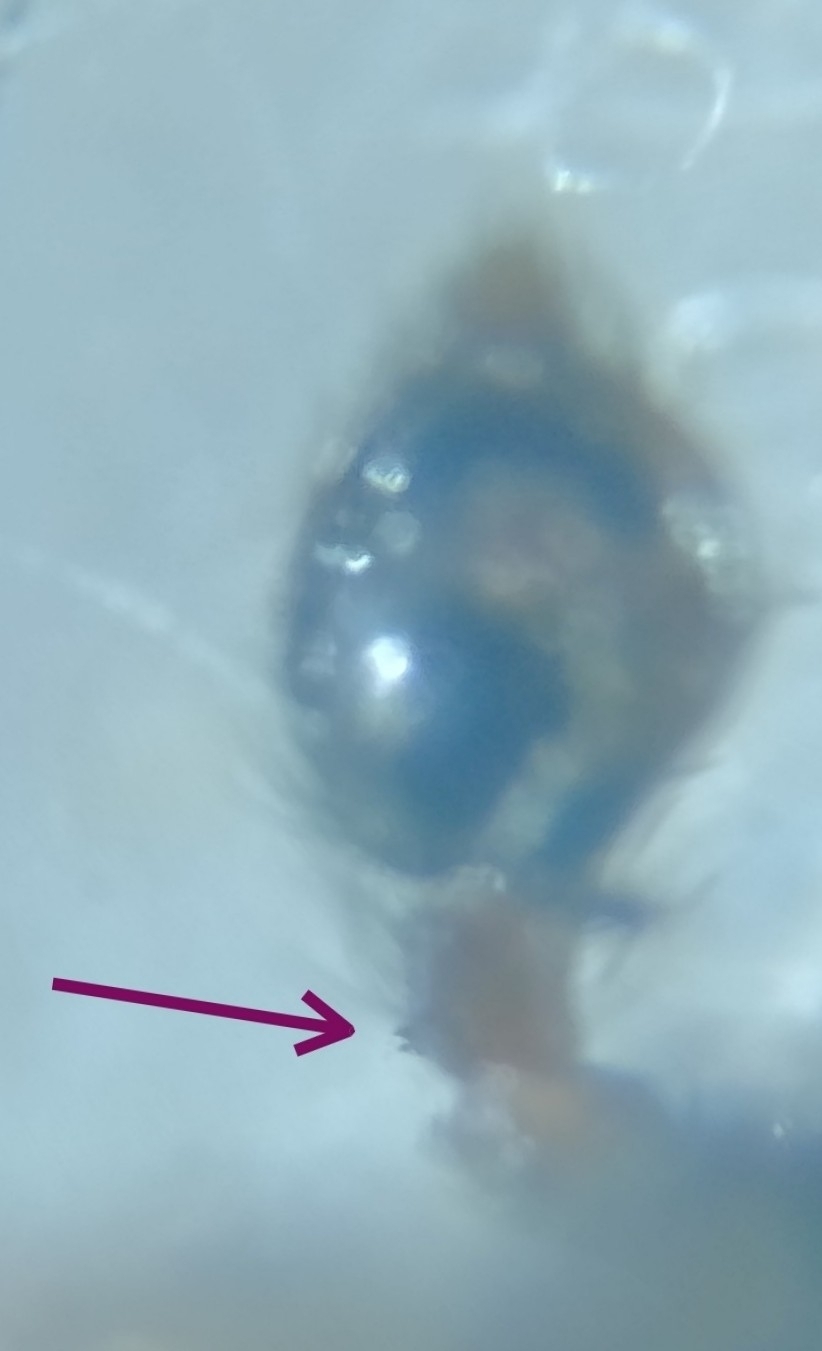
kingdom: Animalia
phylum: Arthropoda
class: Arachnida
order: Araneae
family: Dictynidae
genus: Dictyna
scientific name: Dictyna arundinacea
